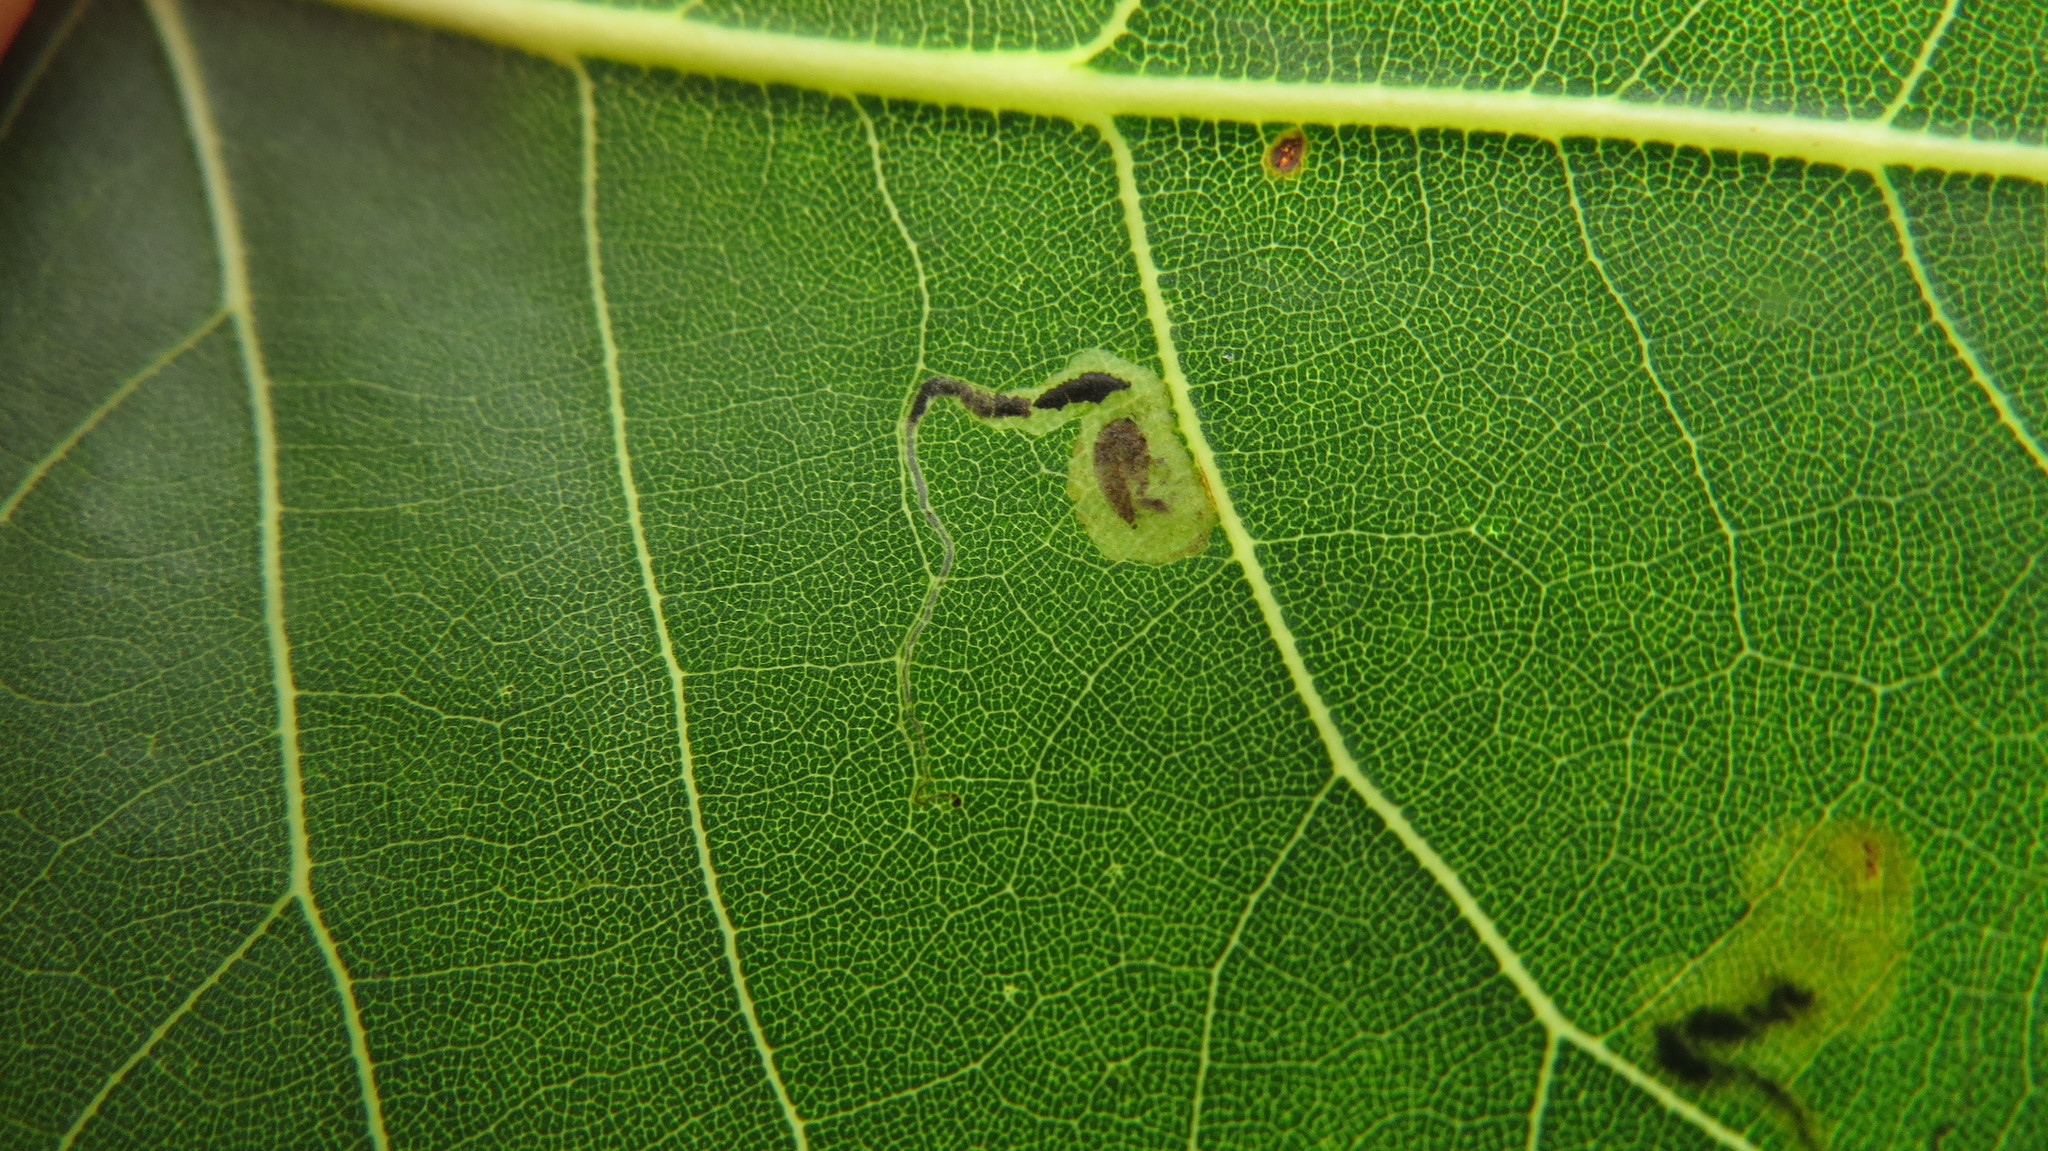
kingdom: Animalia
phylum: Arthropoda
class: Insecta
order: Lepidoptera
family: Nepticulidae
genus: Stigmella
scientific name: Stigmella populetorum
